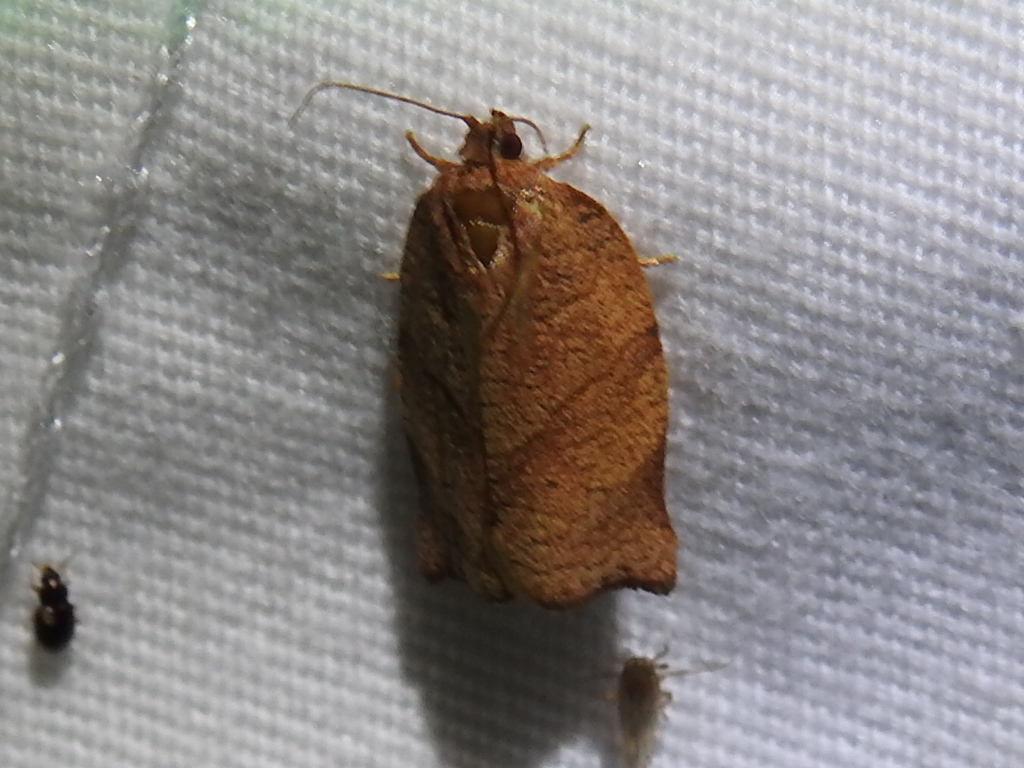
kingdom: Animalia
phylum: Arthropoda
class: Insecta
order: Lepidoptera
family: Tortricidae
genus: Choristoneura
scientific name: Choristoneura rosaceana
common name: Oblique-banded leafroller moth
